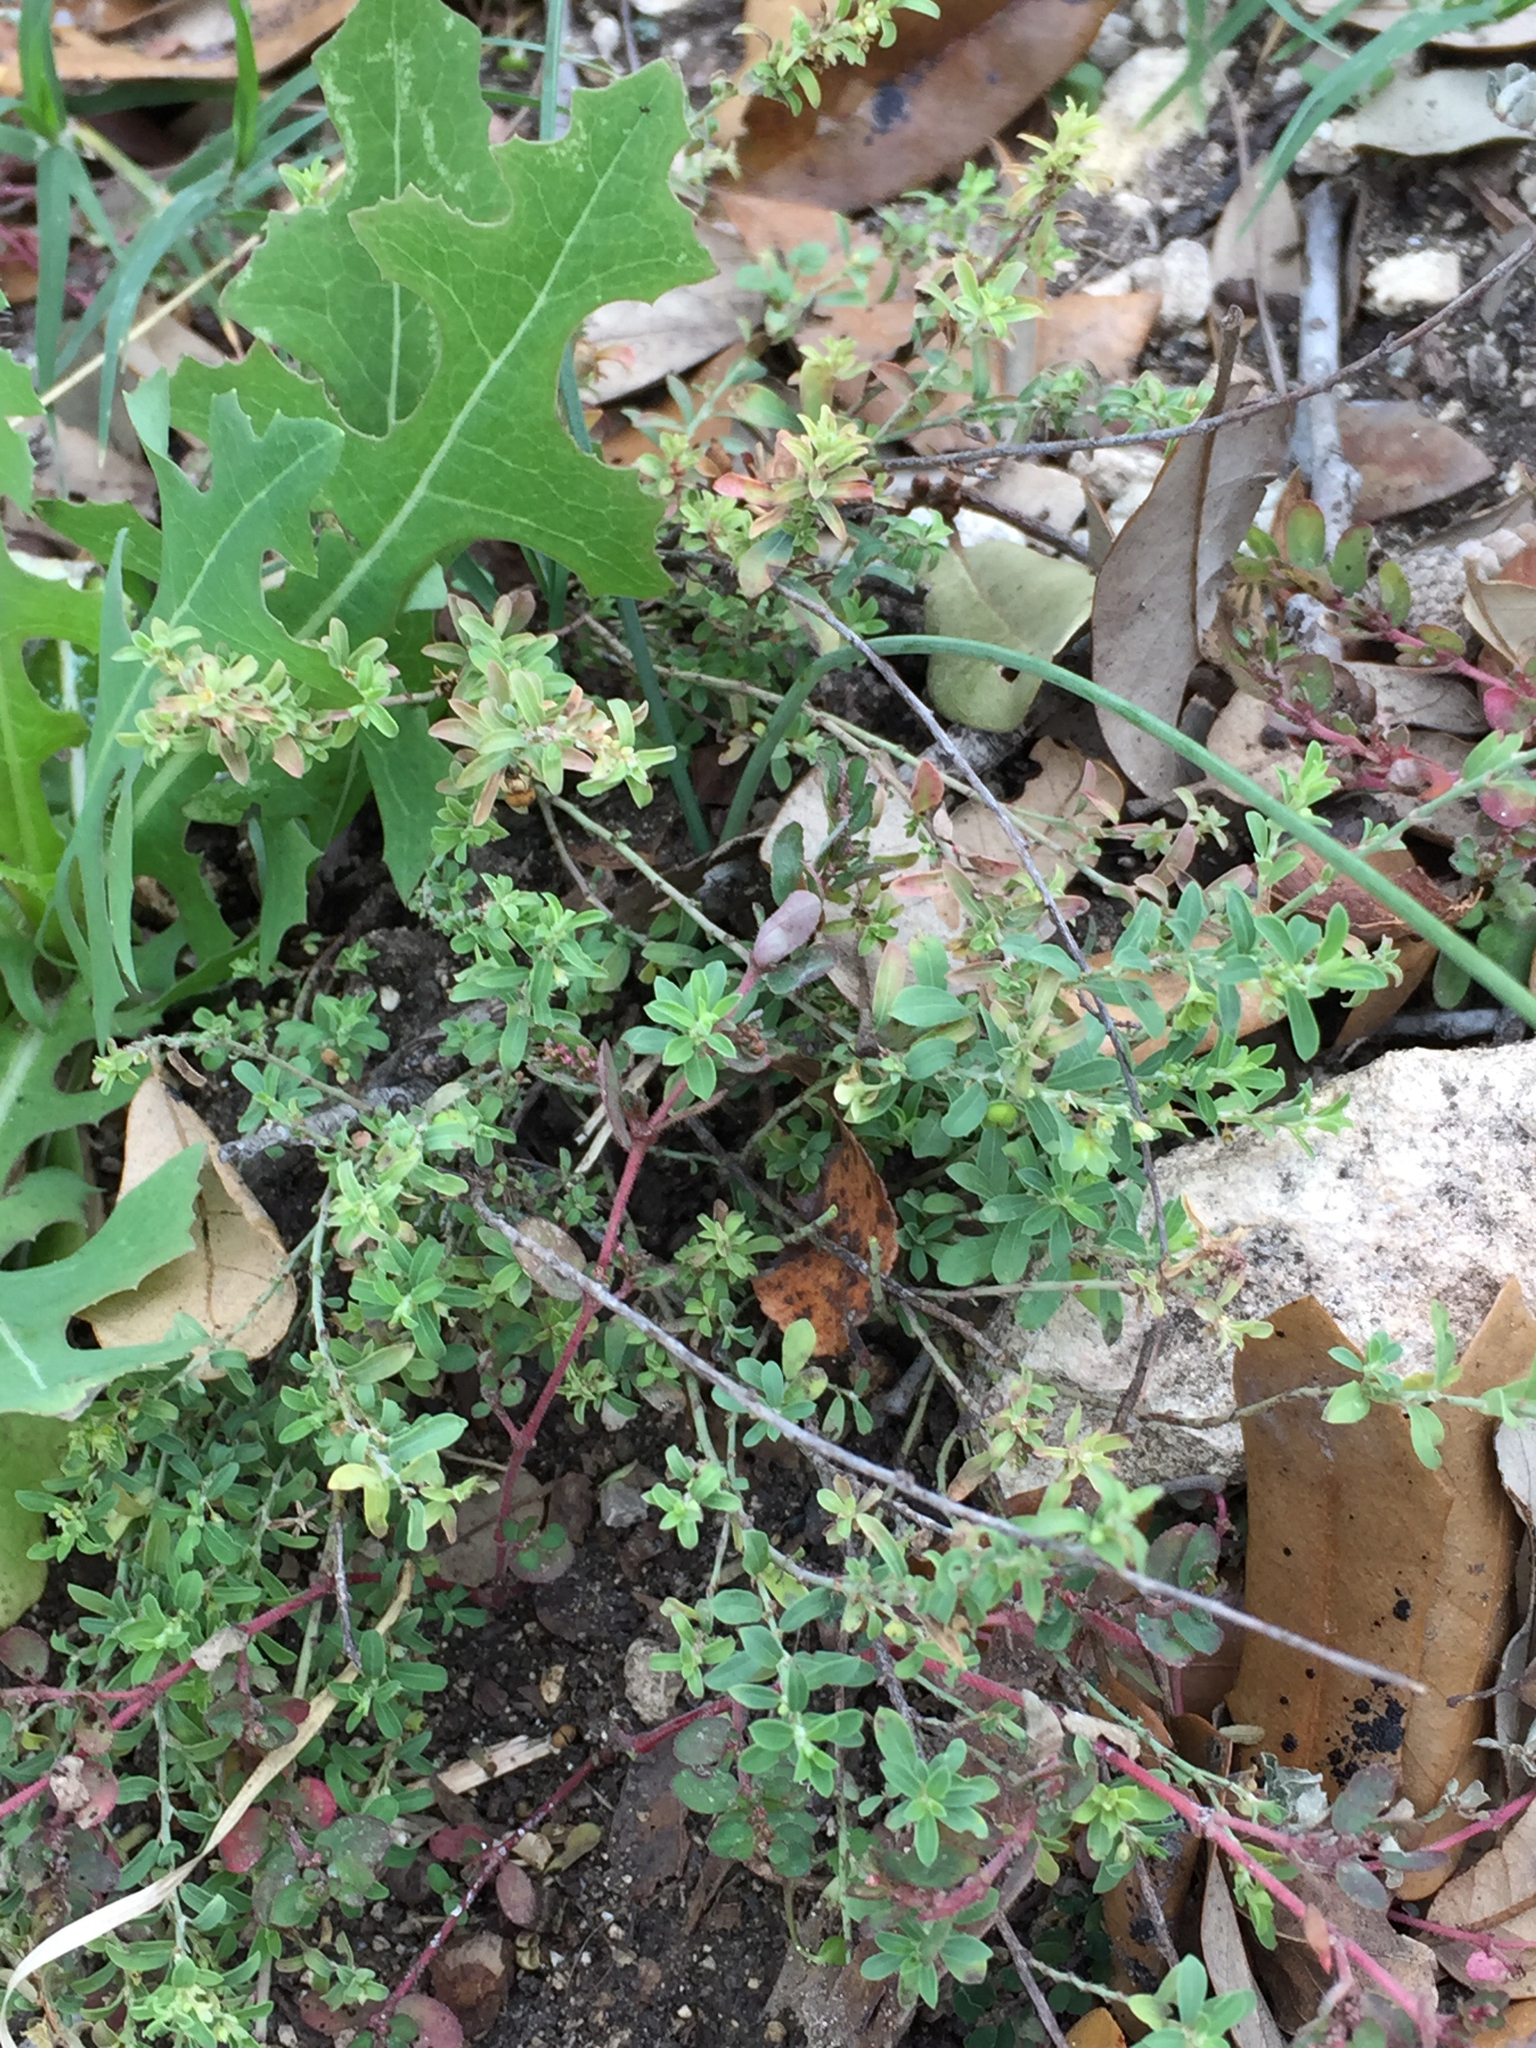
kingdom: Plantae
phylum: Tracheophyta
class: Magnoliopsida
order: Malpighiales
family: Phyllanthaceae
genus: Phyllanthus
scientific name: Phyllanthus polygonoides
